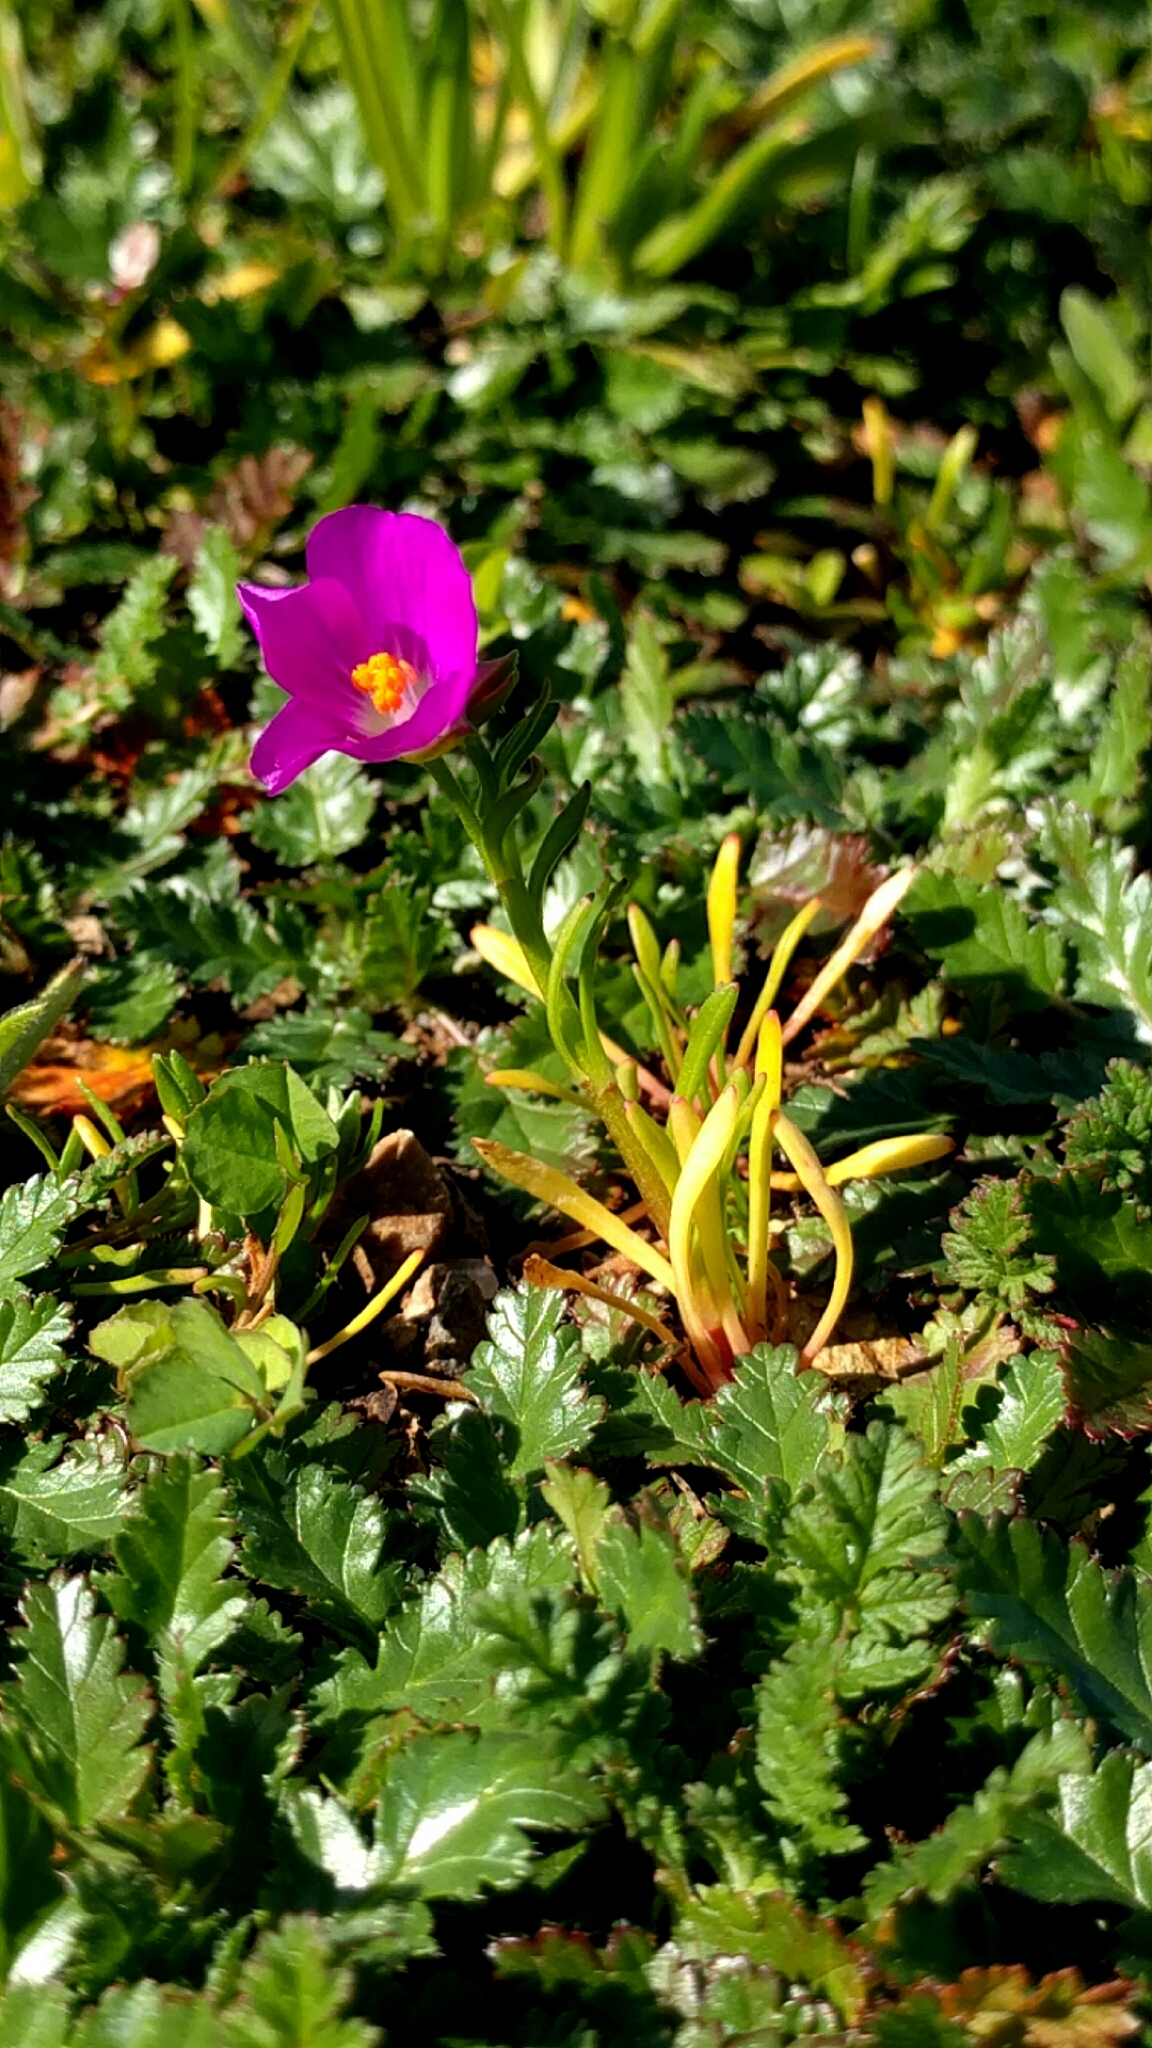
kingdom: Plantae
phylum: Tracheophyta
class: Magnoliopsida
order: Caryophyllales
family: Montiaceae
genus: Calandrinia
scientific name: Calandrinia menziesii
